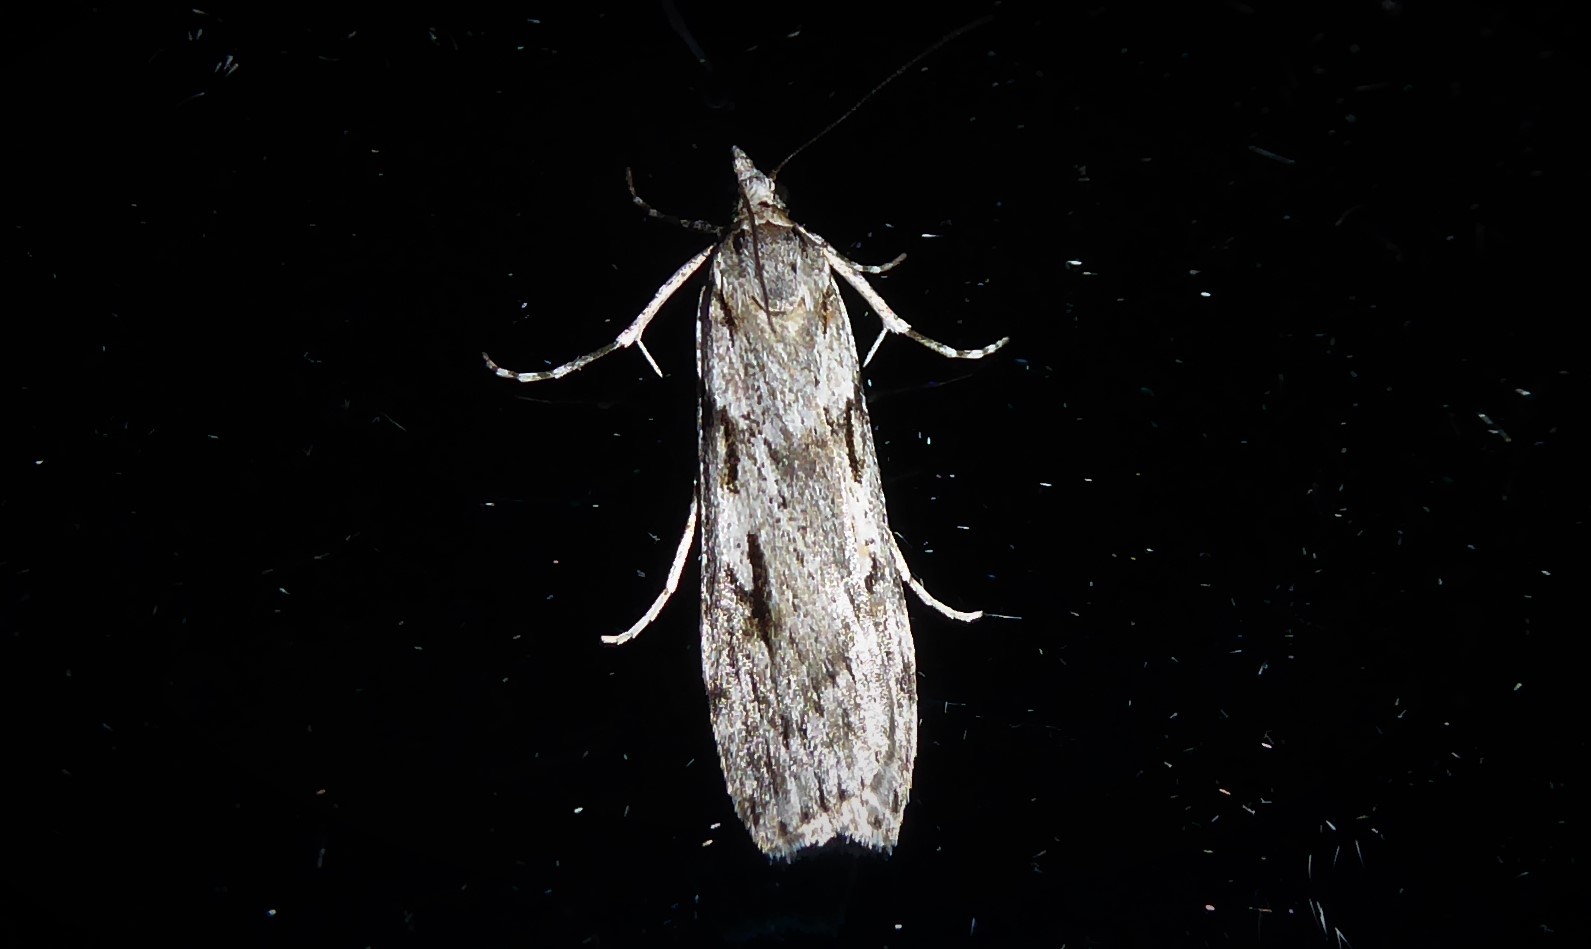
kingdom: Animalia
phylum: Arthropoda
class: Insecta
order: Lepidoptera
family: Crambidae
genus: Scoparia
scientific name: Scoparia halopis
